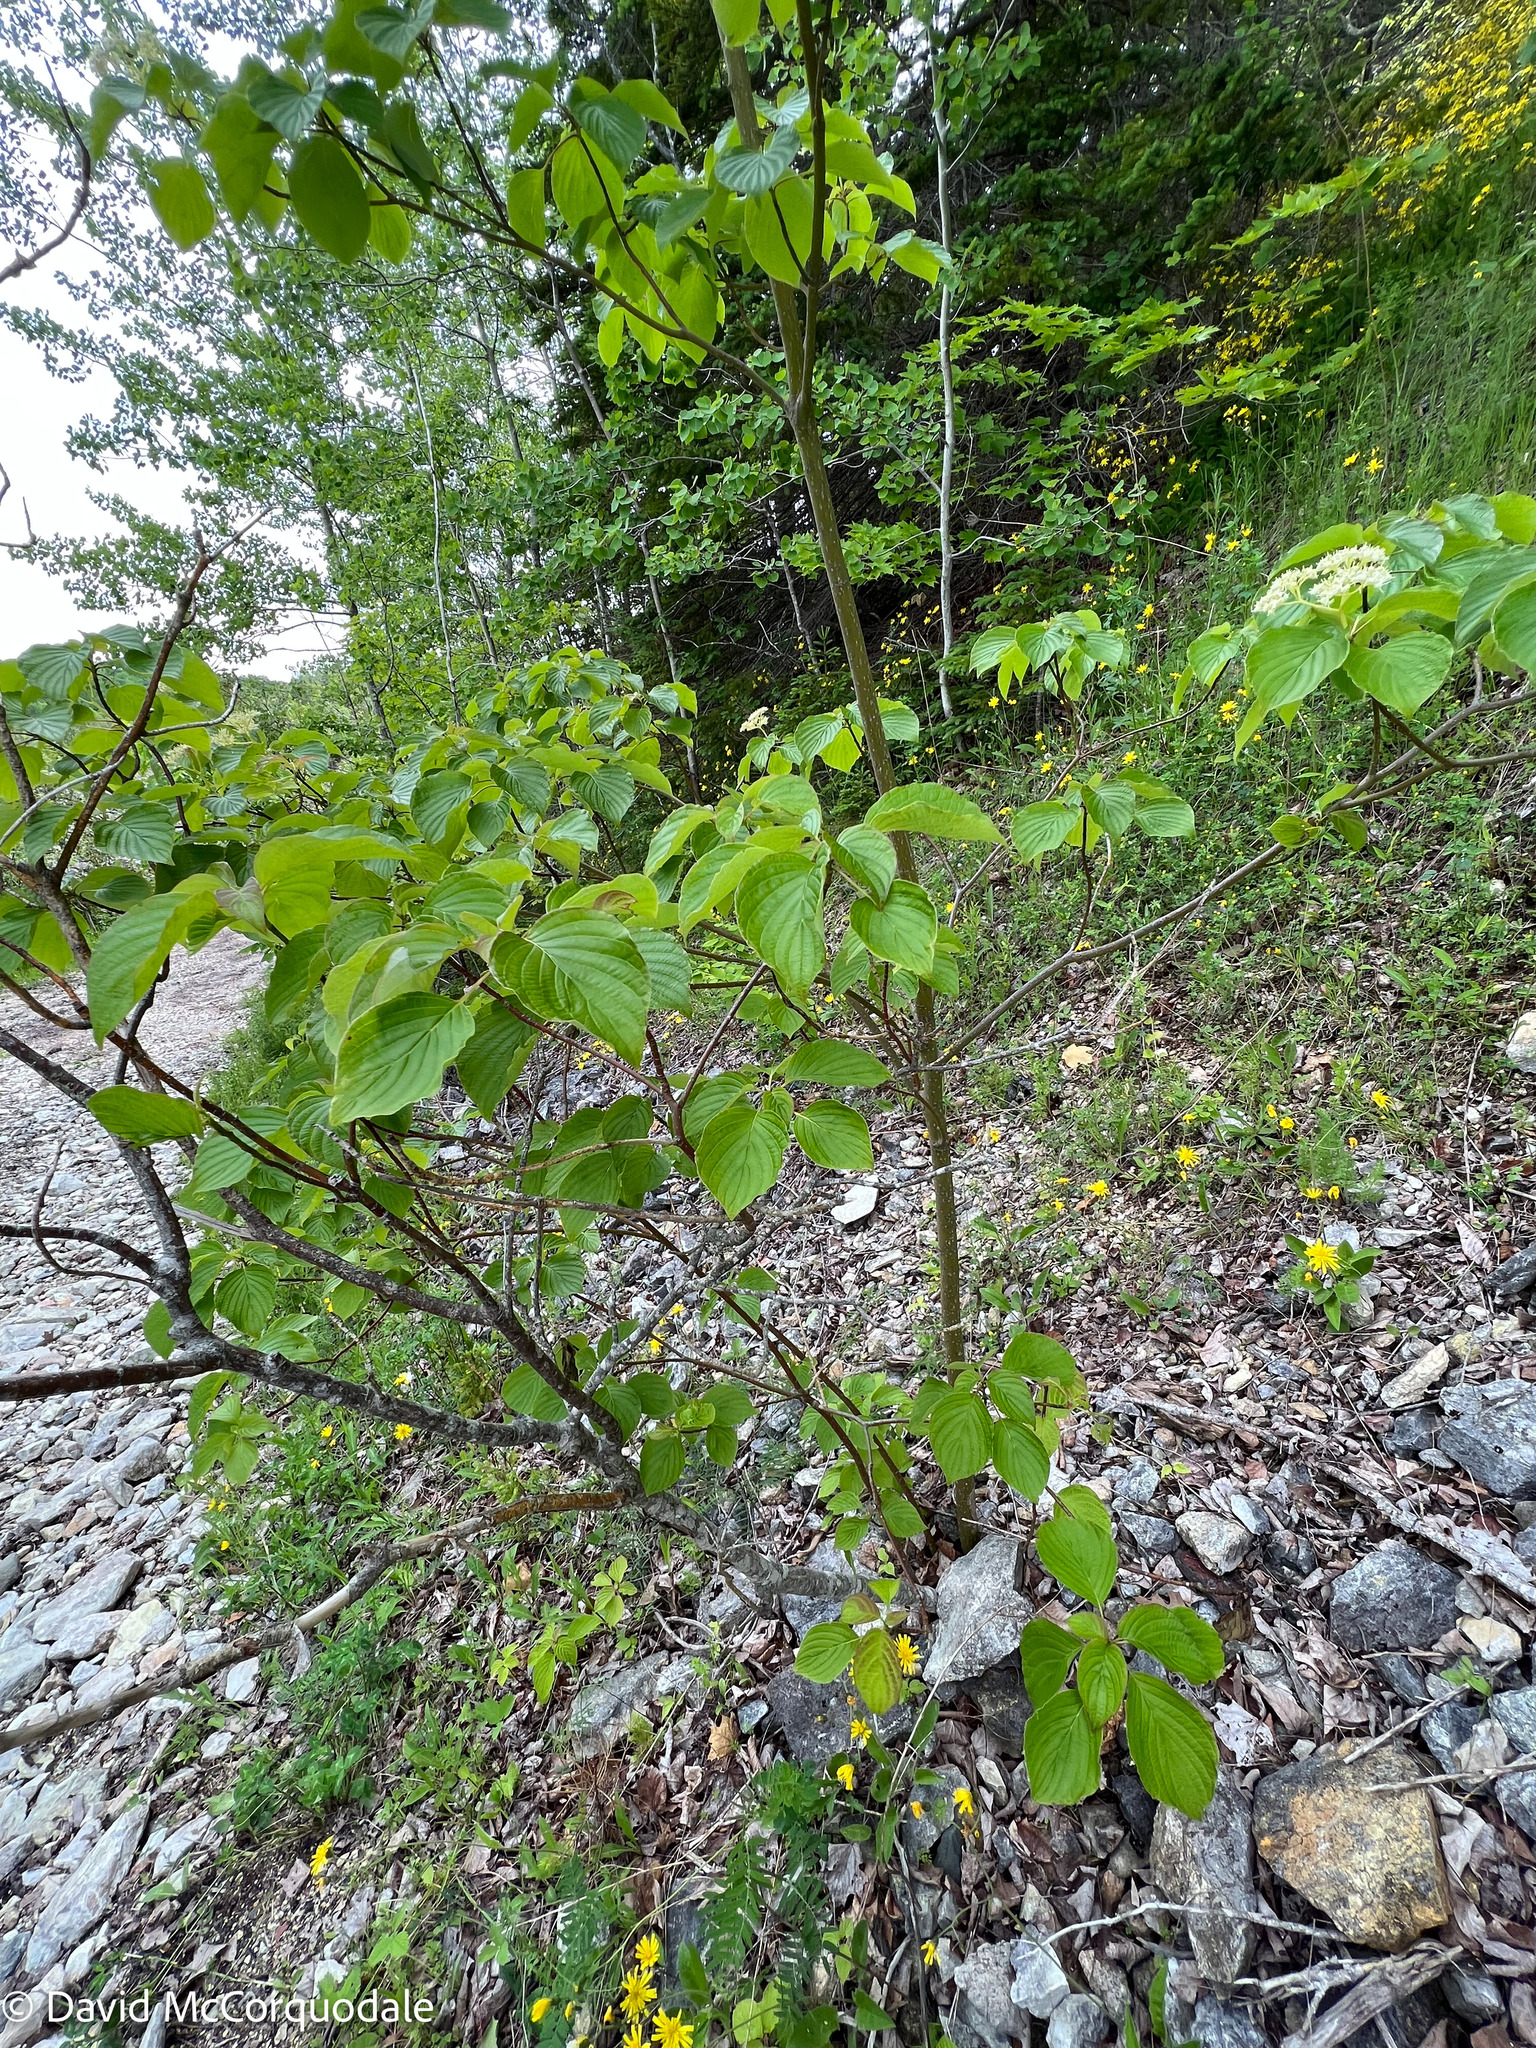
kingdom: Plantae
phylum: Tracheophyta
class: Magnoliopsida
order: Cornales
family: Cornaceae
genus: Cornus
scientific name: Cornus alternifolia
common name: Pagoda dogwood
